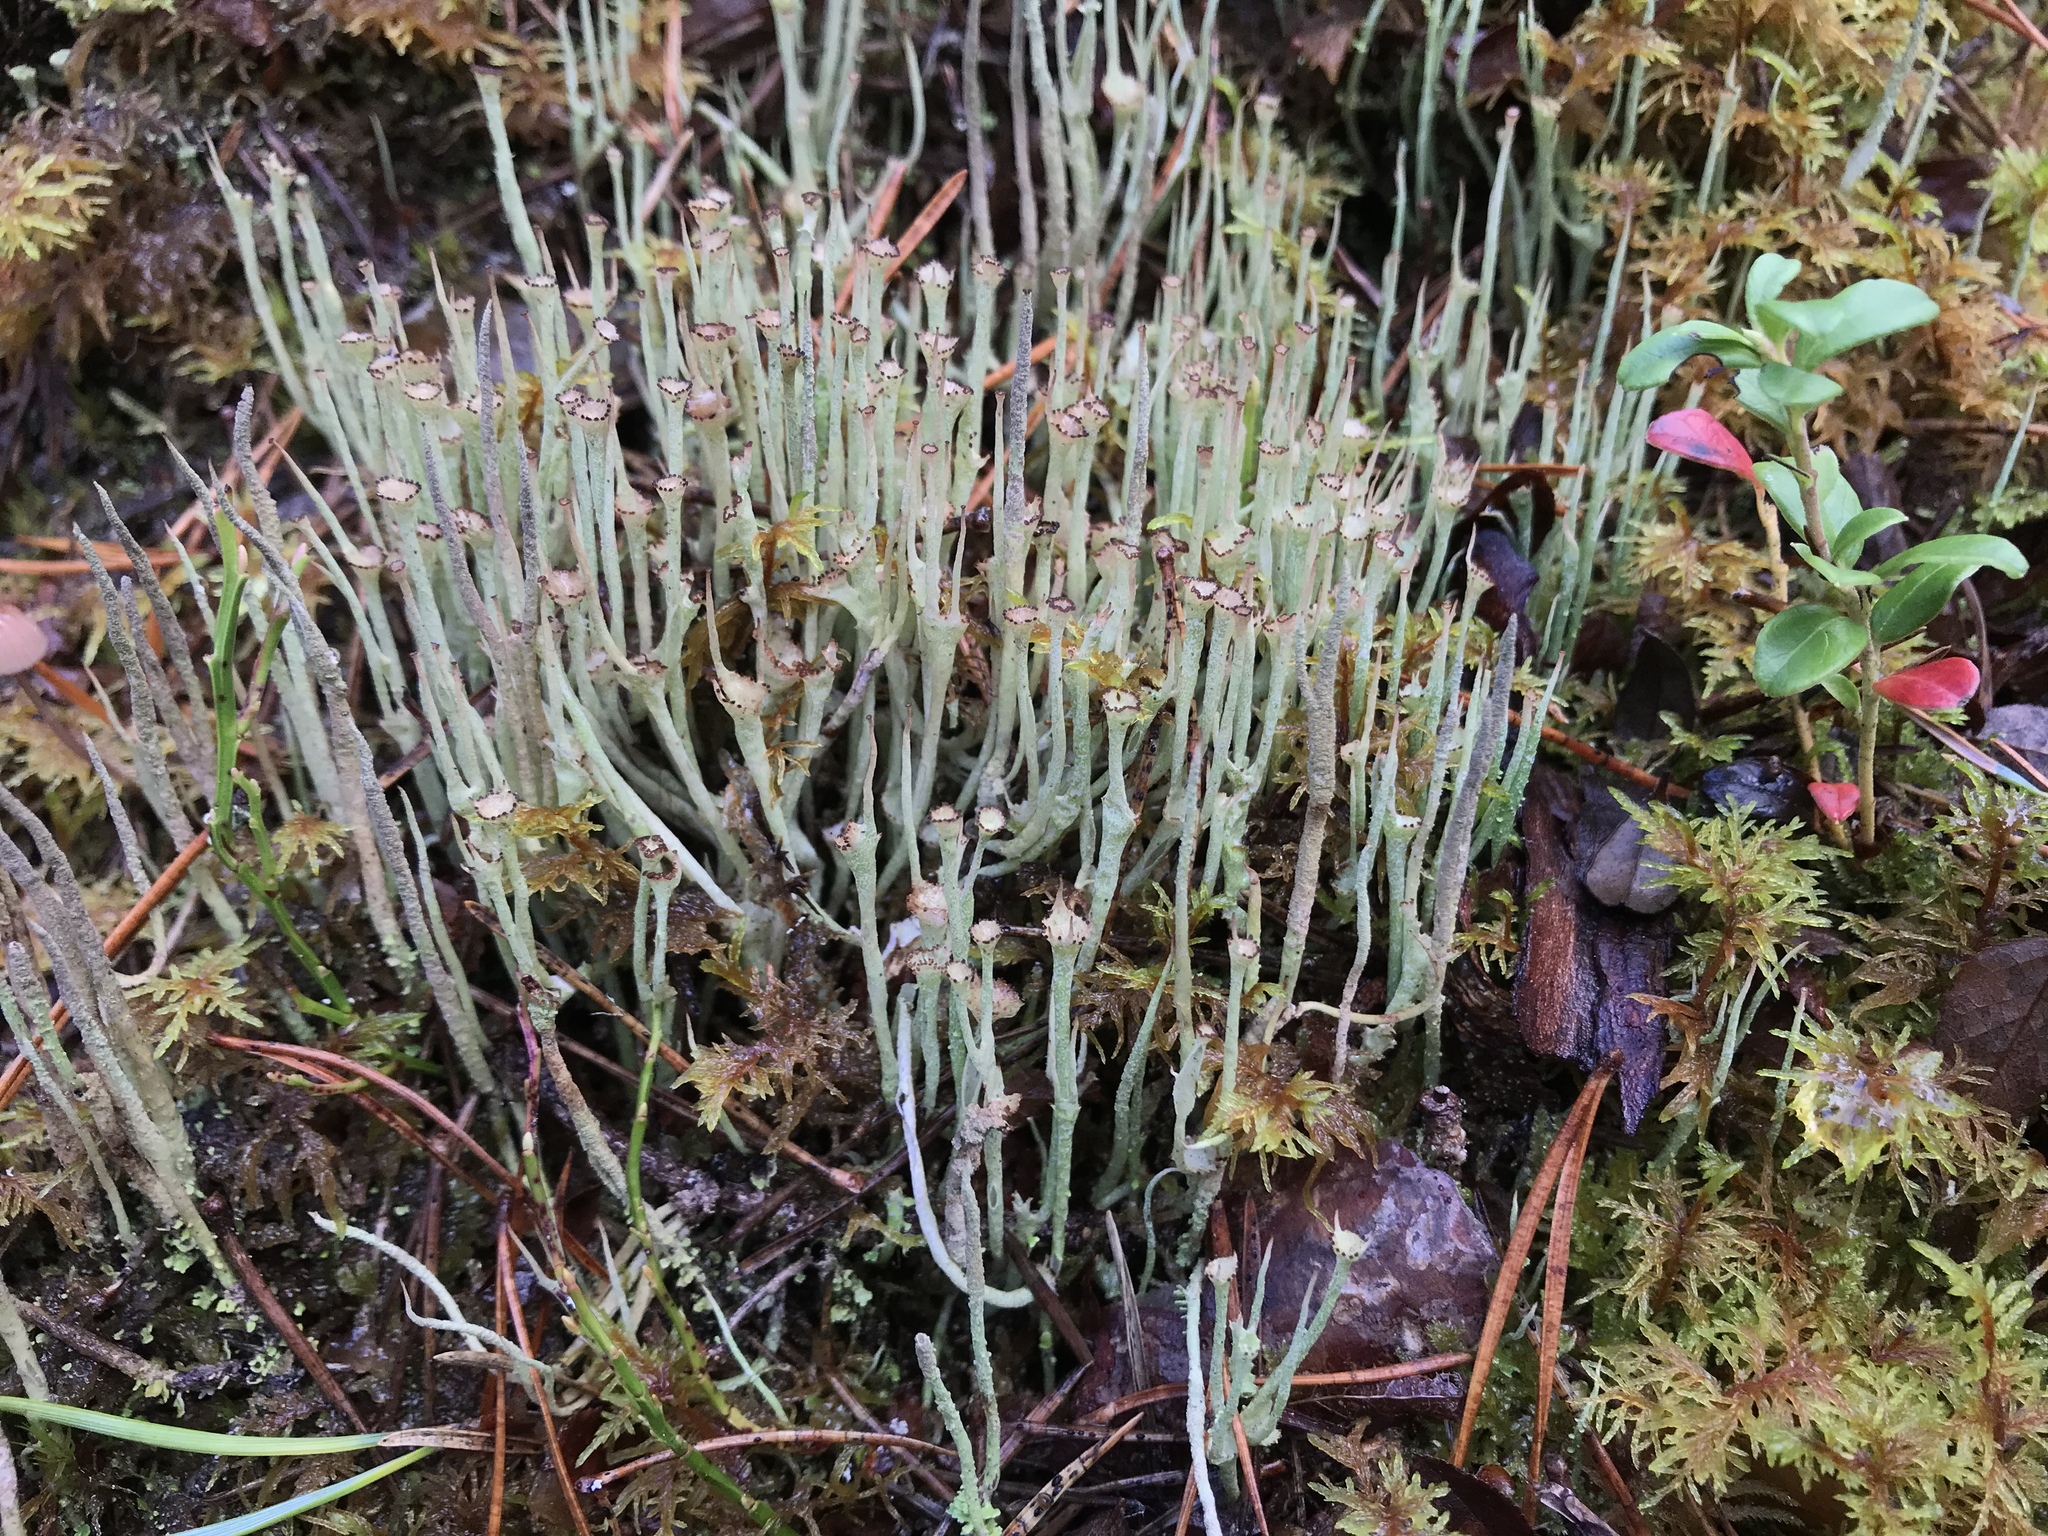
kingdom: Fungi
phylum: Ascomycota
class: Lecanoromycetes
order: Lecanorales
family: Cladoniaceae
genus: Cladonia
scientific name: Cladonia gracilis
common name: Smooth clad lichen
